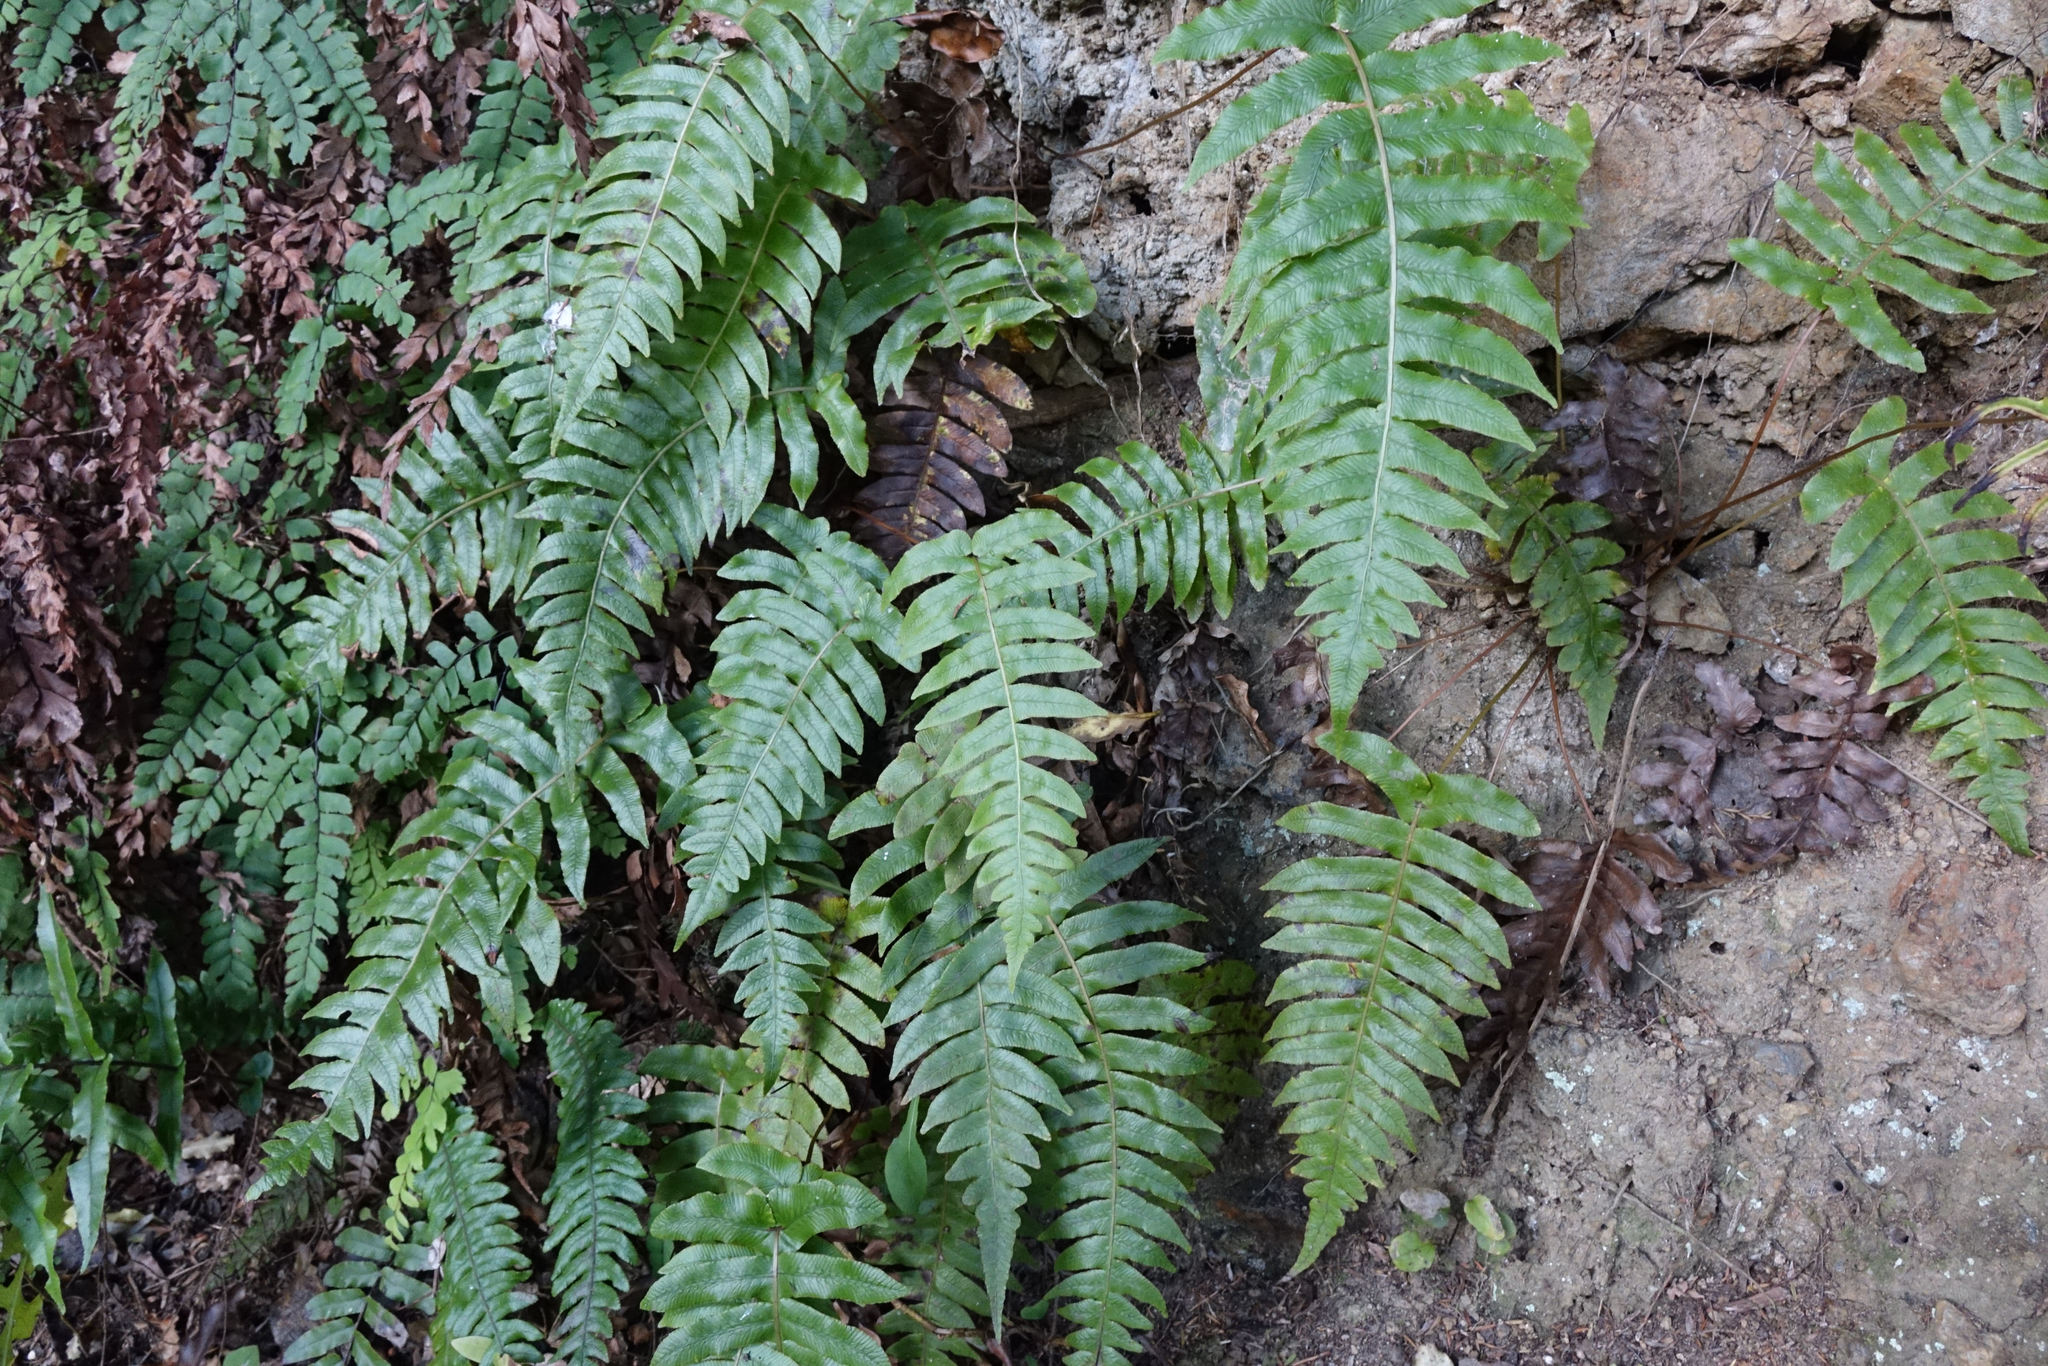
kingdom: Plantae
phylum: Tracheophyta
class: Polypodiopsida
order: Polypodiales
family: Blechnaceae
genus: Cranfillia
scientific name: Cranfillia vulcanica
